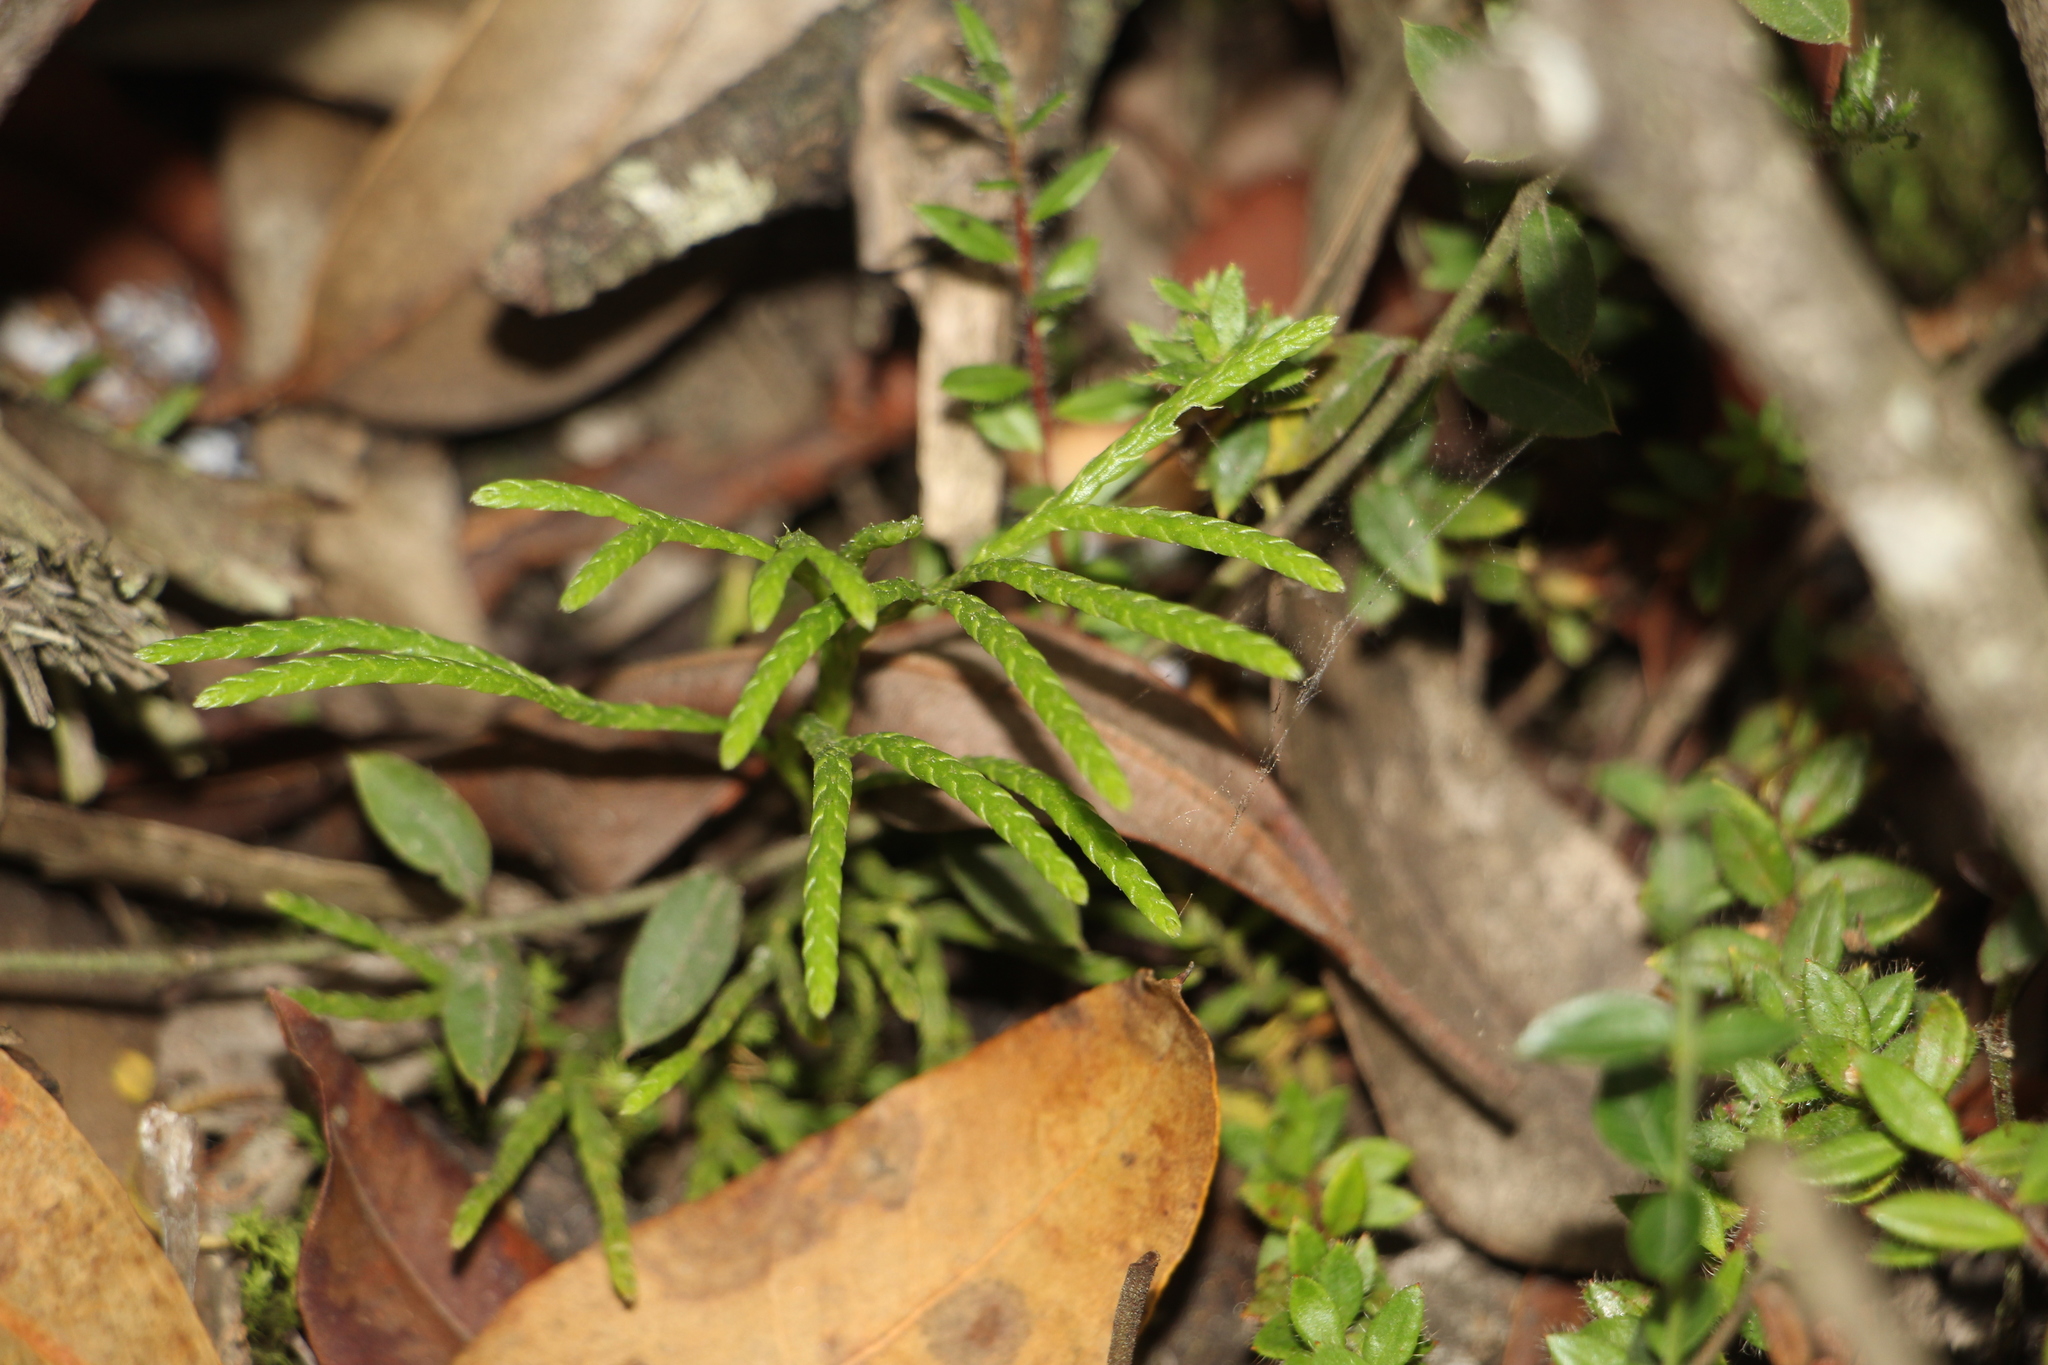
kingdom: Plantae
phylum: Tracheophyta
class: Lycopodiopsida
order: Lycopodiales
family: Lycopodiaceae
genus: Diphasiastrum
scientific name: Diphasiastrum thyoides
